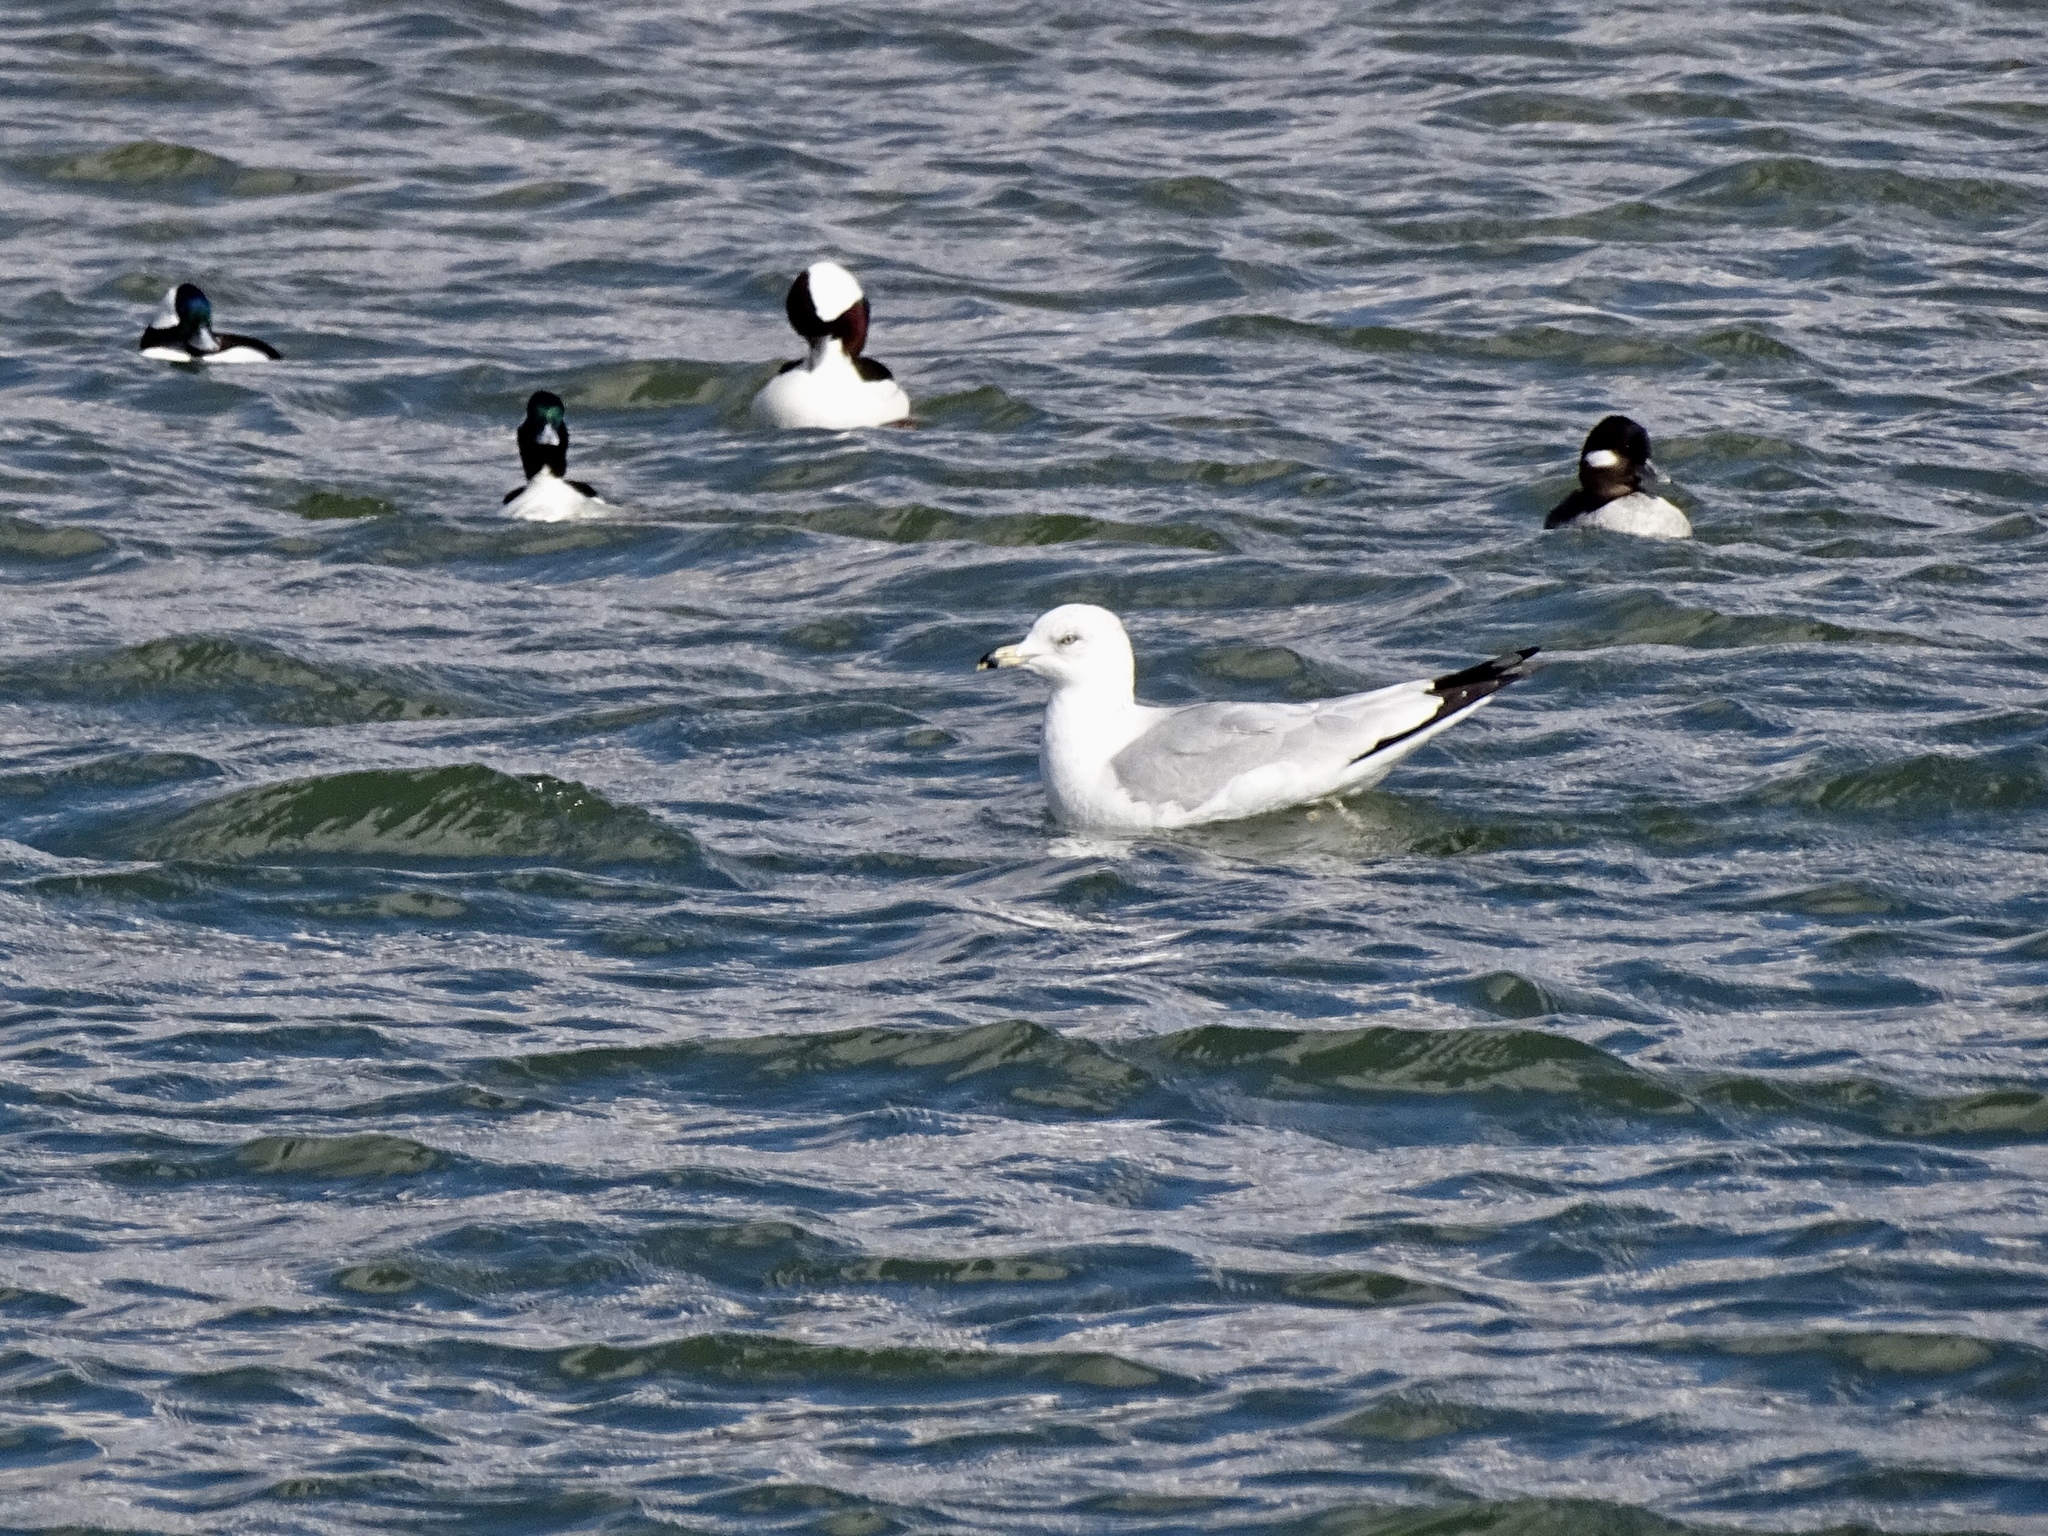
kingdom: Animalia
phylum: Chordata
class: Aves
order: Anseriformes
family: Anatidae
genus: Bucephala
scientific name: Bucephala albeola
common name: Bufflehead
